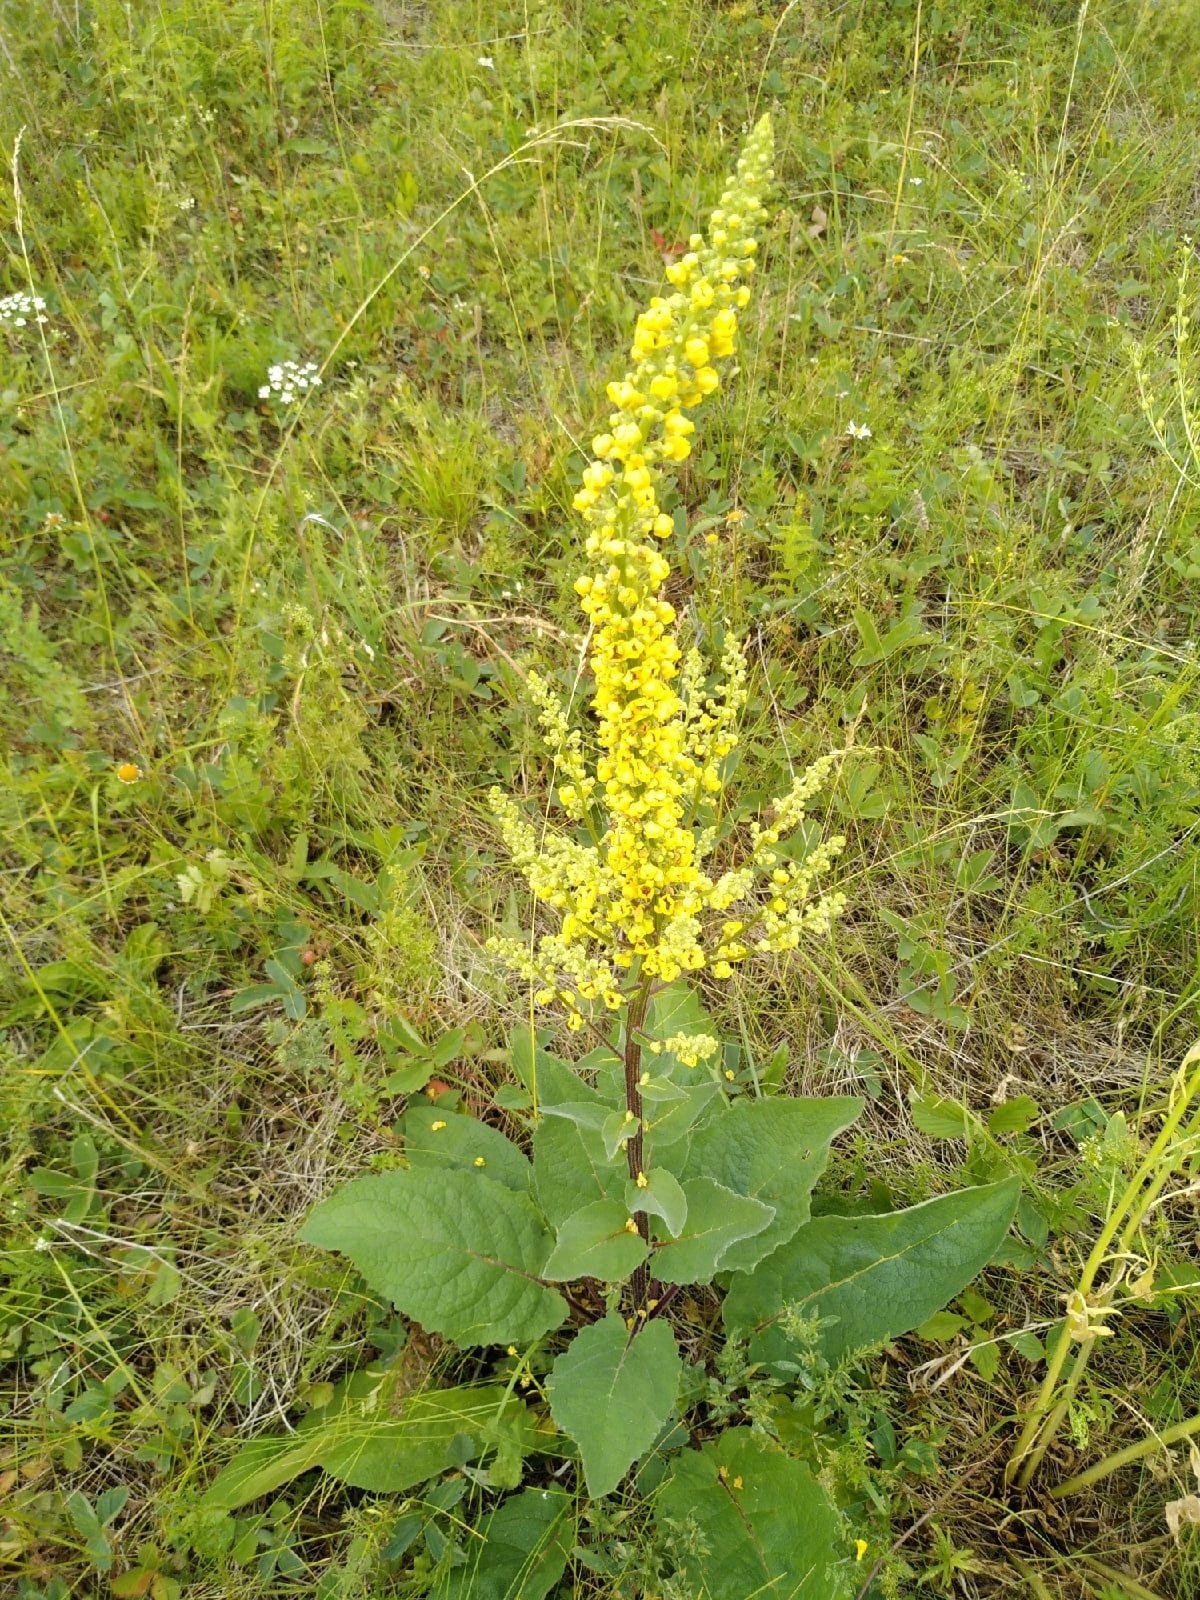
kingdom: Plantae
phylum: Tracheophyta
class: Magnoliopsida
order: Lamiales
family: Scrophulariaceae
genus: Verbascum
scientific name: Verbascum nigrum
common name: Dark mullein
